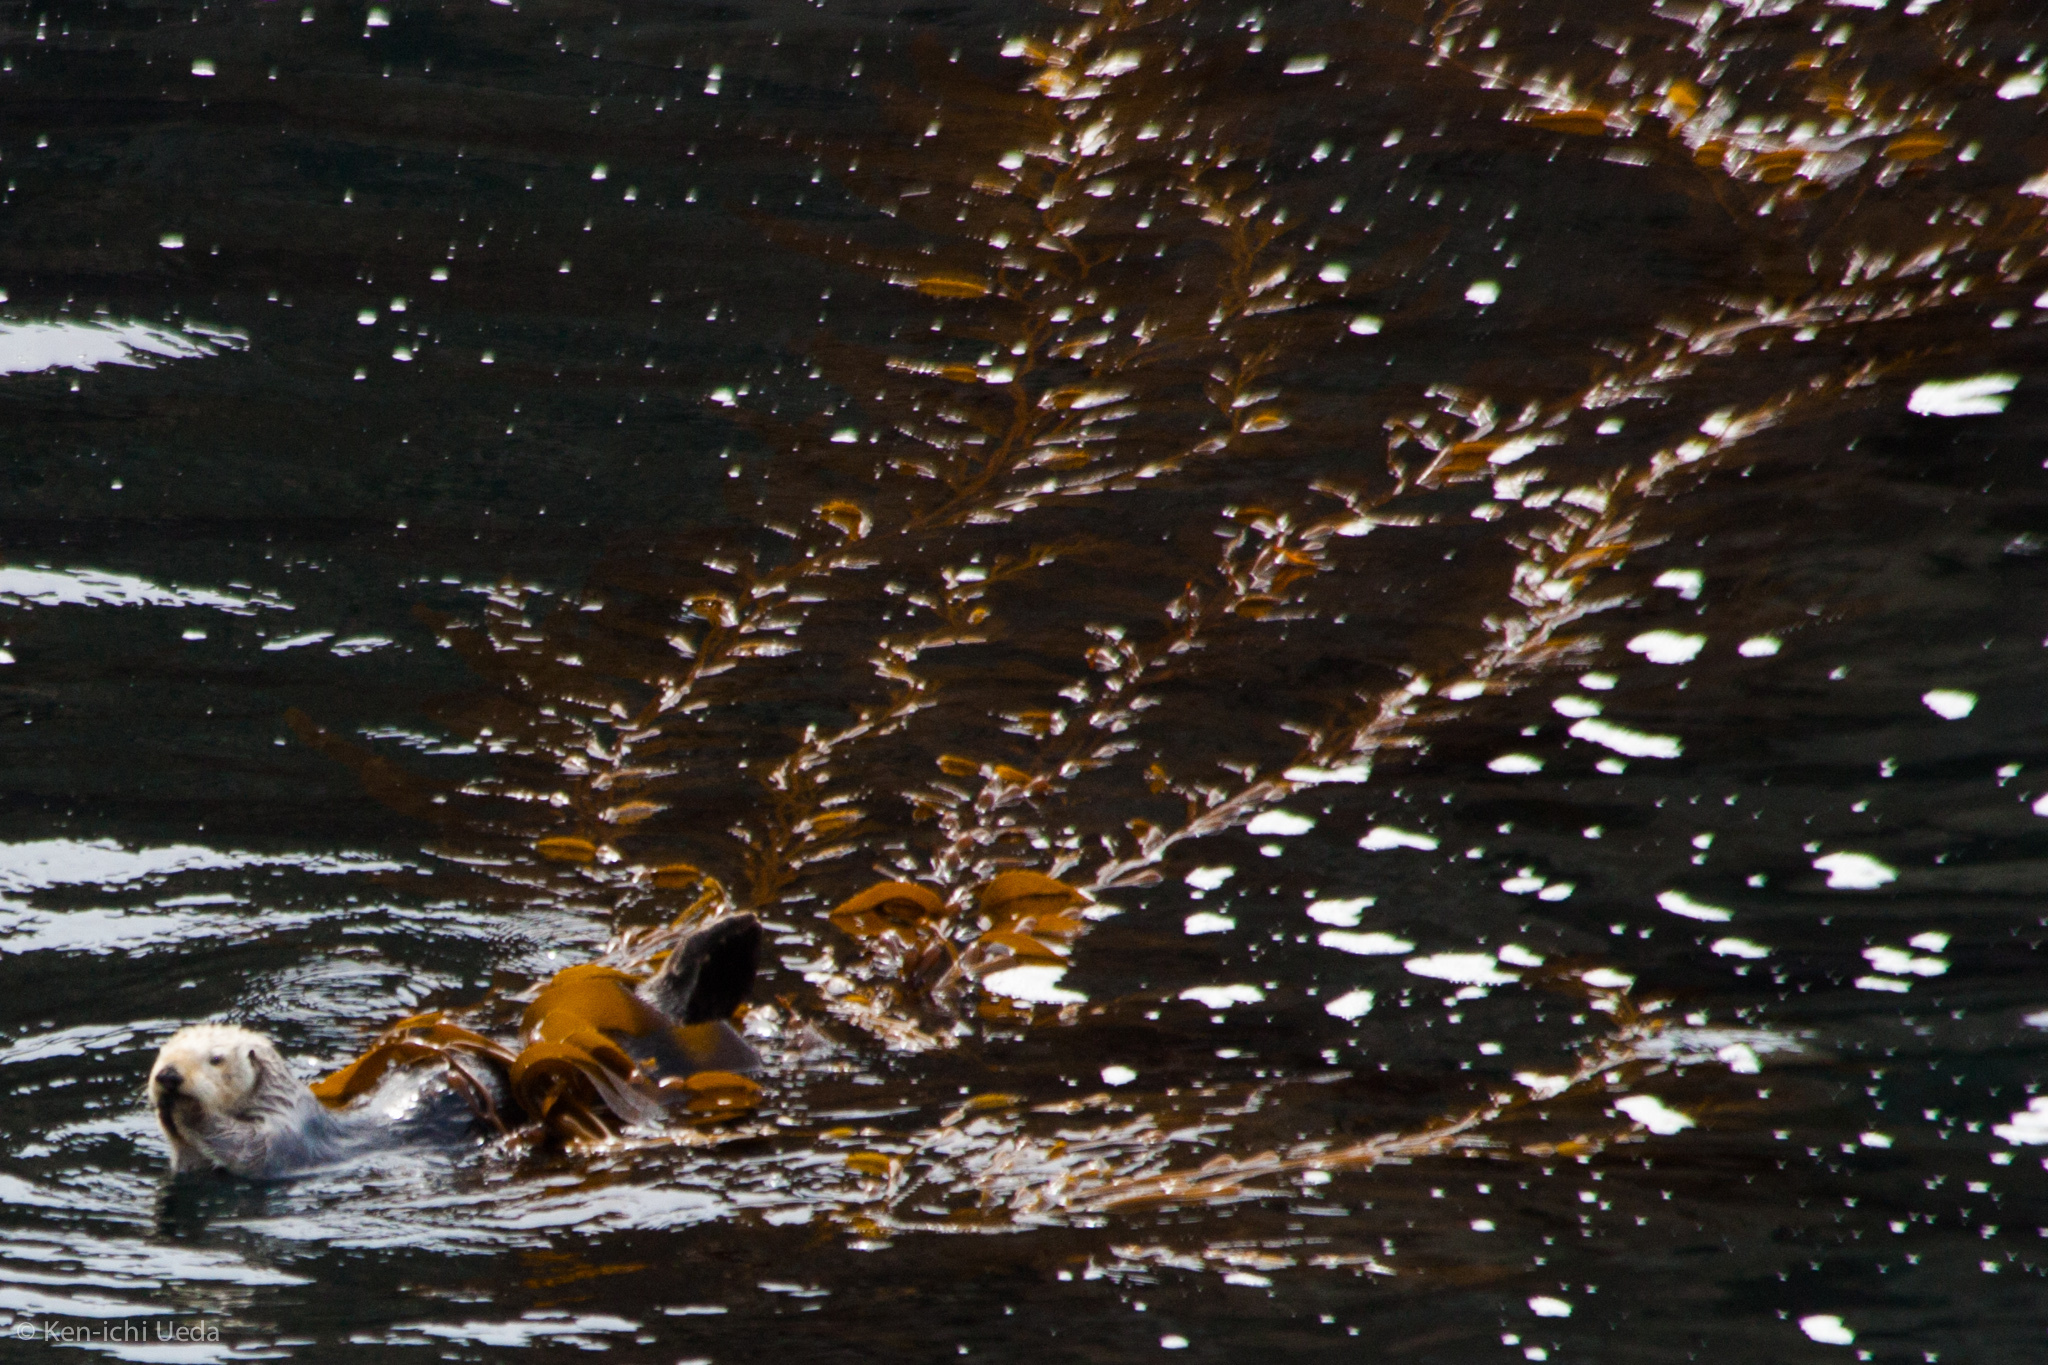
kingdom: Chromista
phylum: Ochrophyta
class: Phaeophyceae
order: Laminariales
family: Laminariaceae
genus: Macrocystis
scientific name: Macrocystis pyrifera
